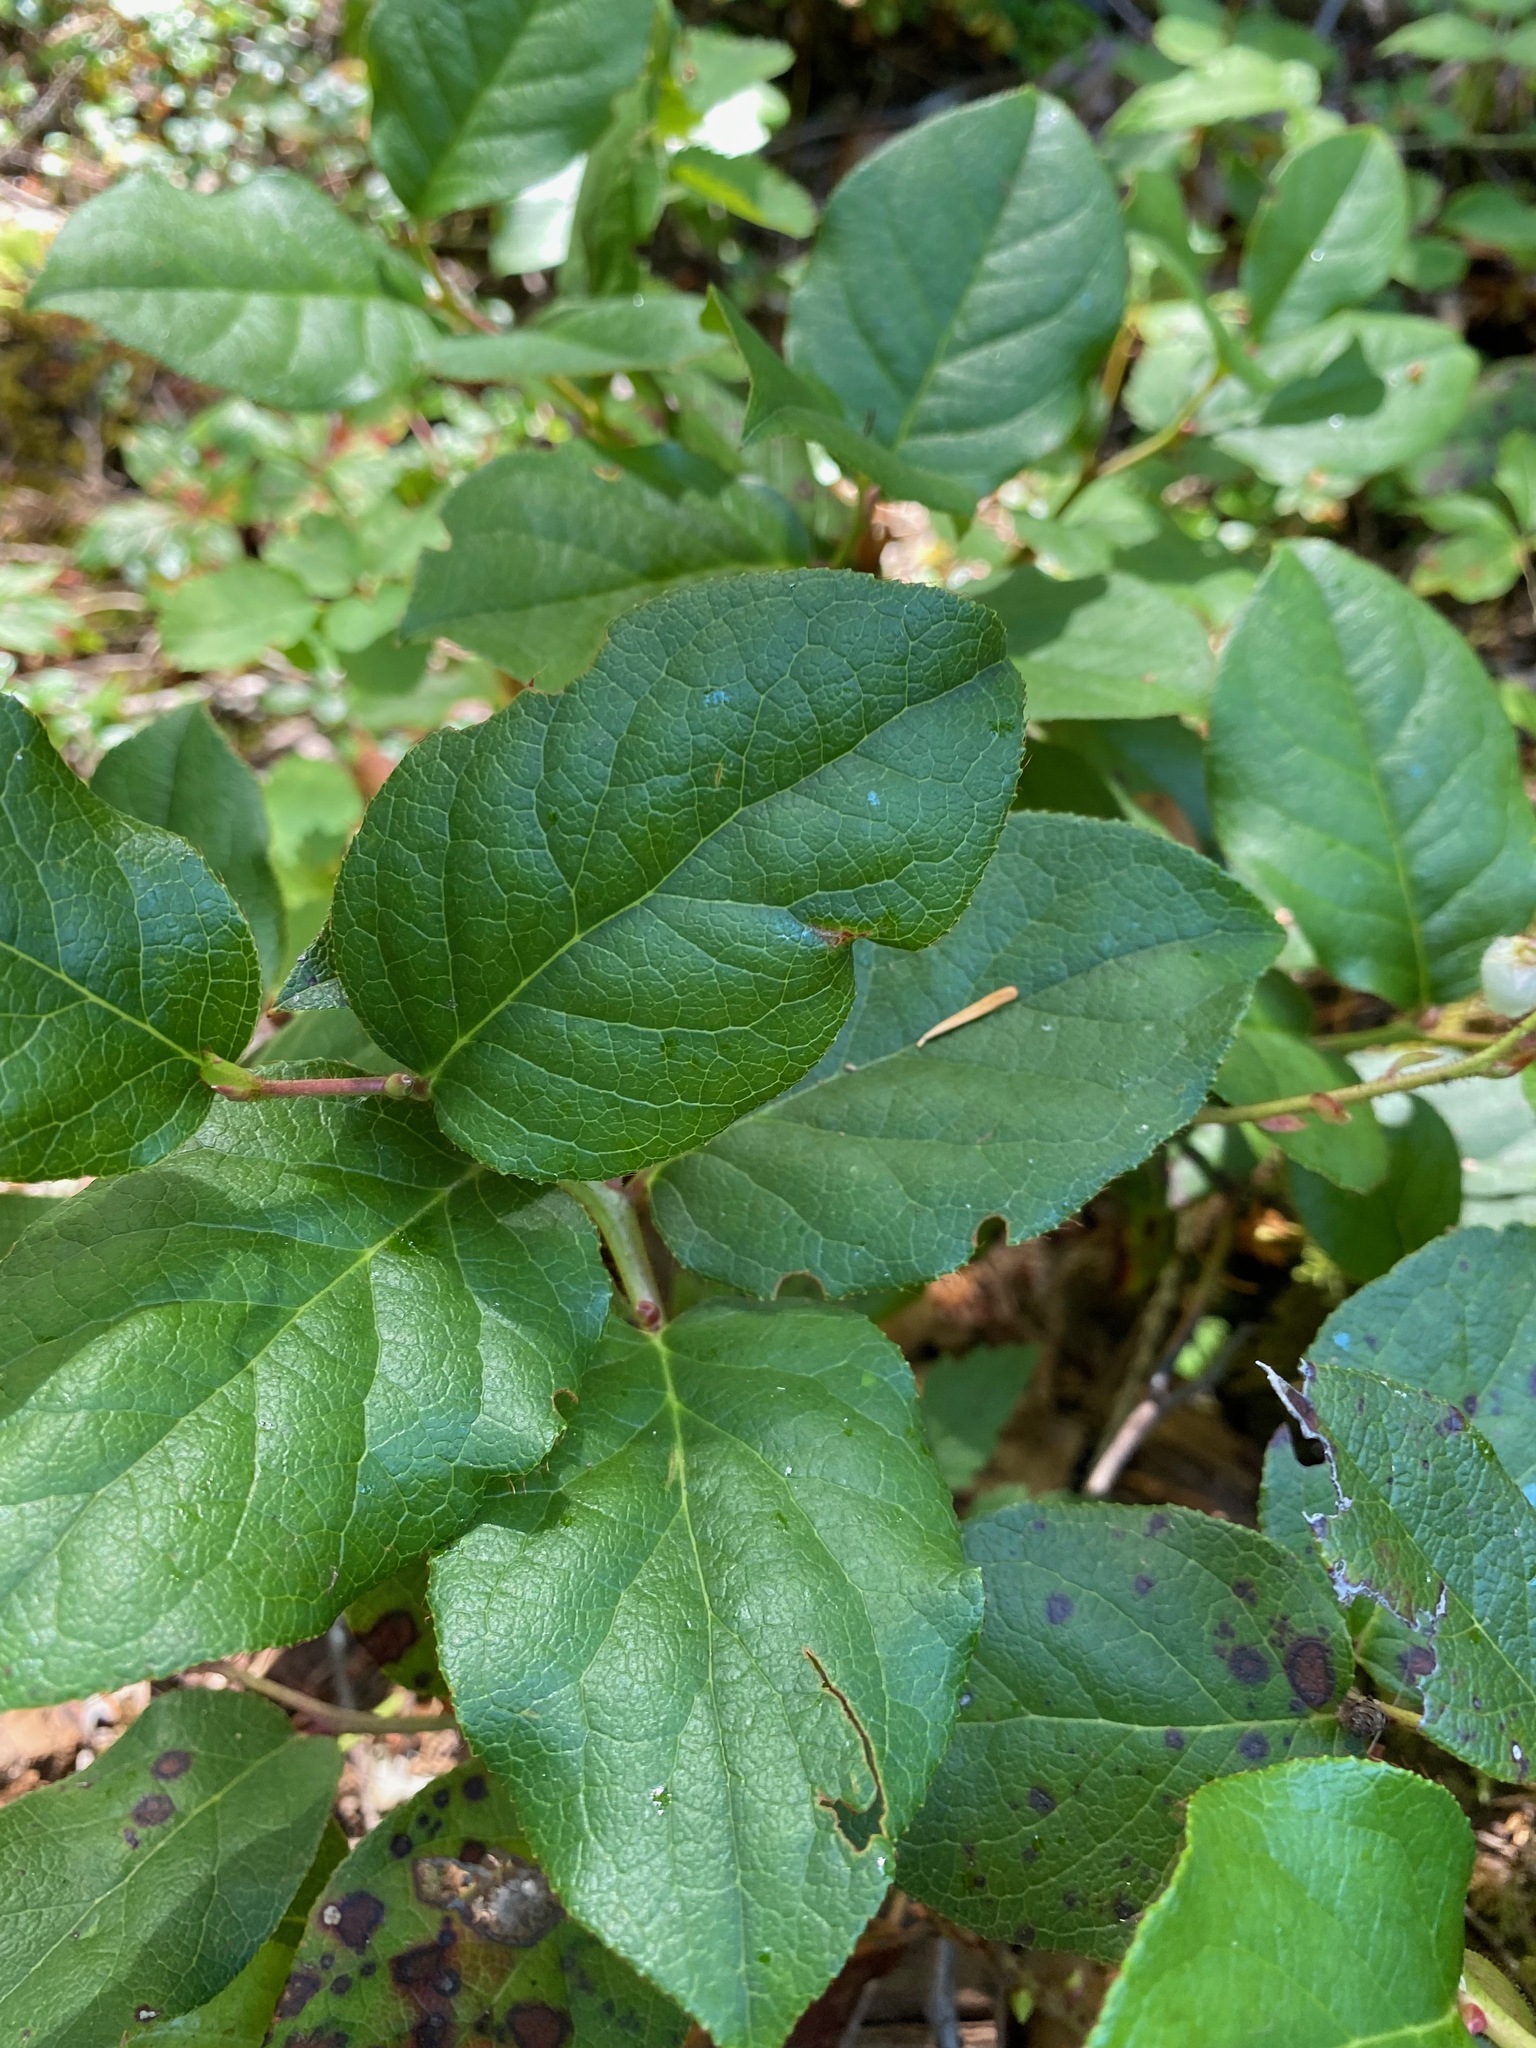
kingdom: Plantae
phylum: Tracheophyta
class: Magnoliopsida
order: Ericales
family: Ericaceae
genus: Gaultheria
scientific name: Gaultheria shallon
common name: Shallon
